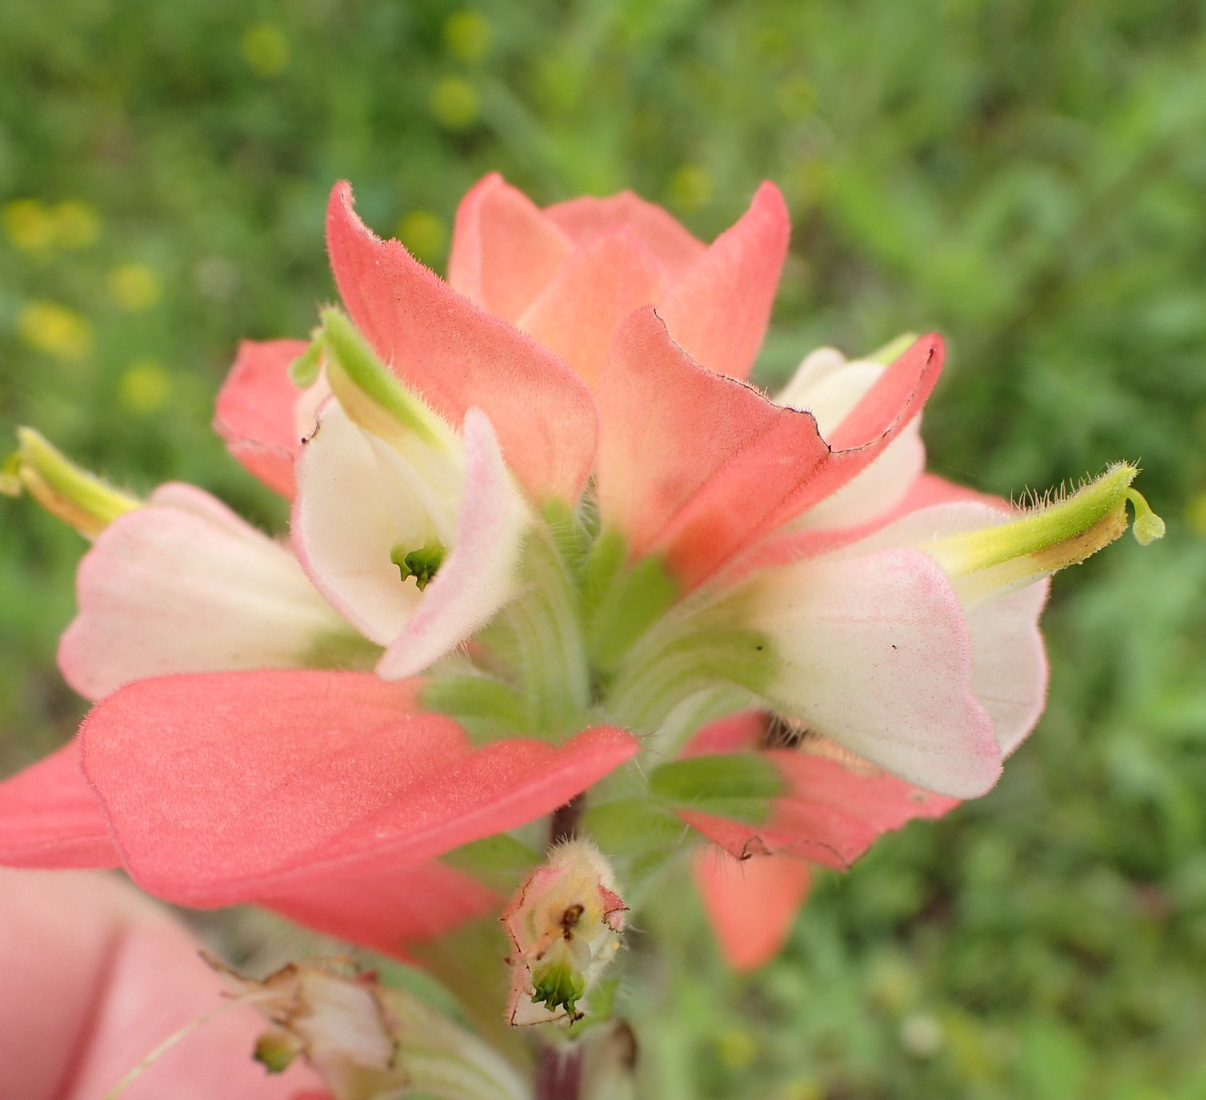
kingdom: Plantae
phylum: Tracheophyta
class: Magnoliopsida
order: Lamiales
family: Orobanchaceae
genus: Castilleja
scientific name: Castilleja indivisa
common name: Texas paintbrush
